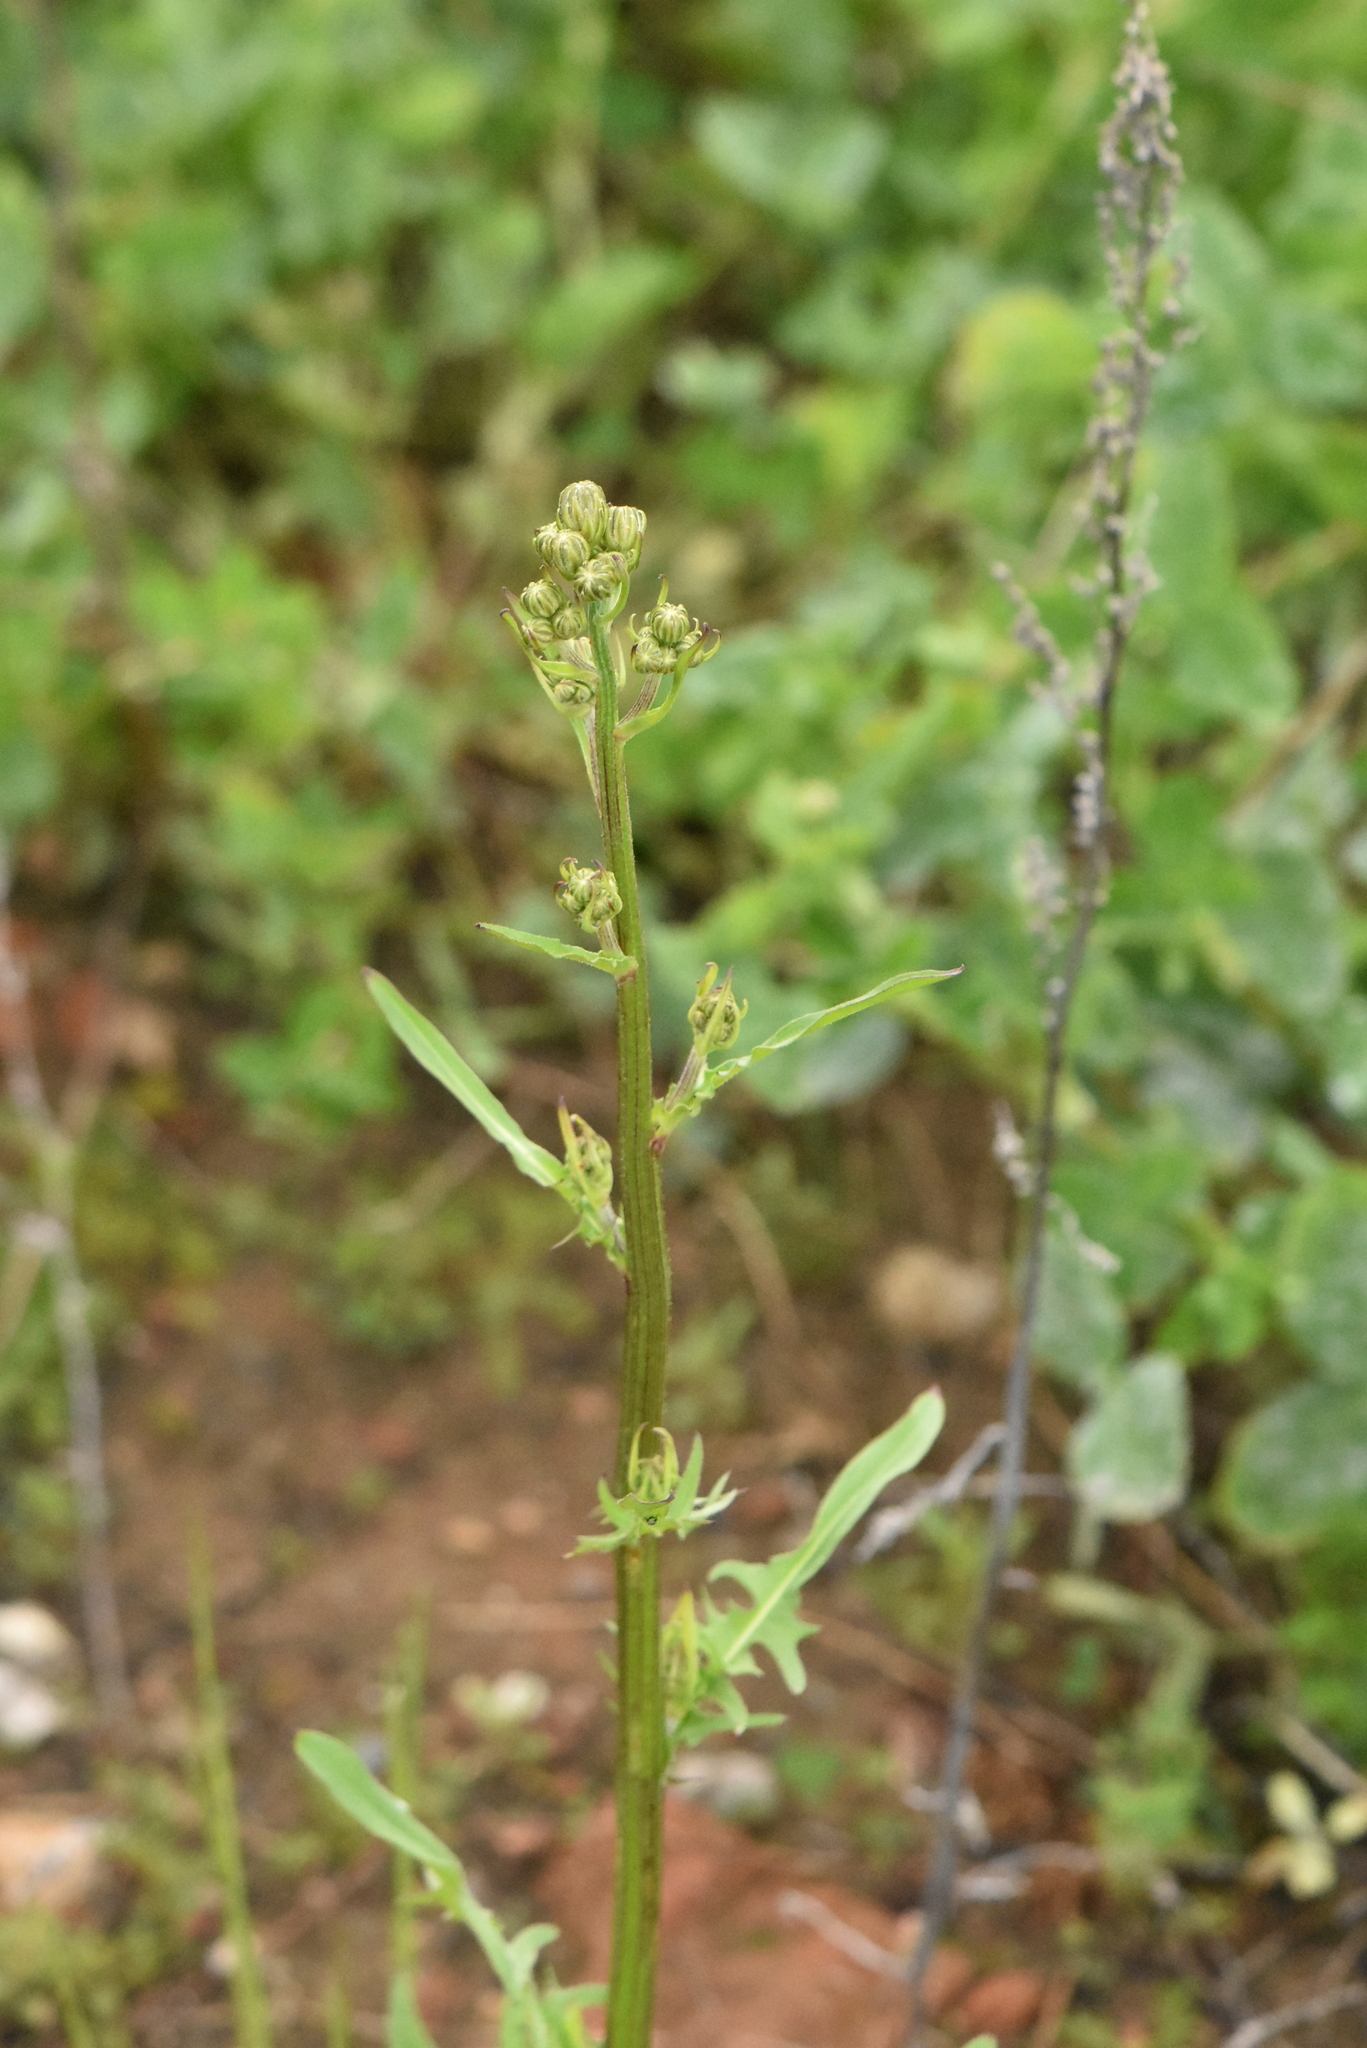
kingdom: Plantae
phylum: Tracheophyta
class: Magnoliopsida
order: Asterales
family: Asteraceae
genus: Crepis
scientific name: Crepis biennis
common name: Rough hawk's-beard
